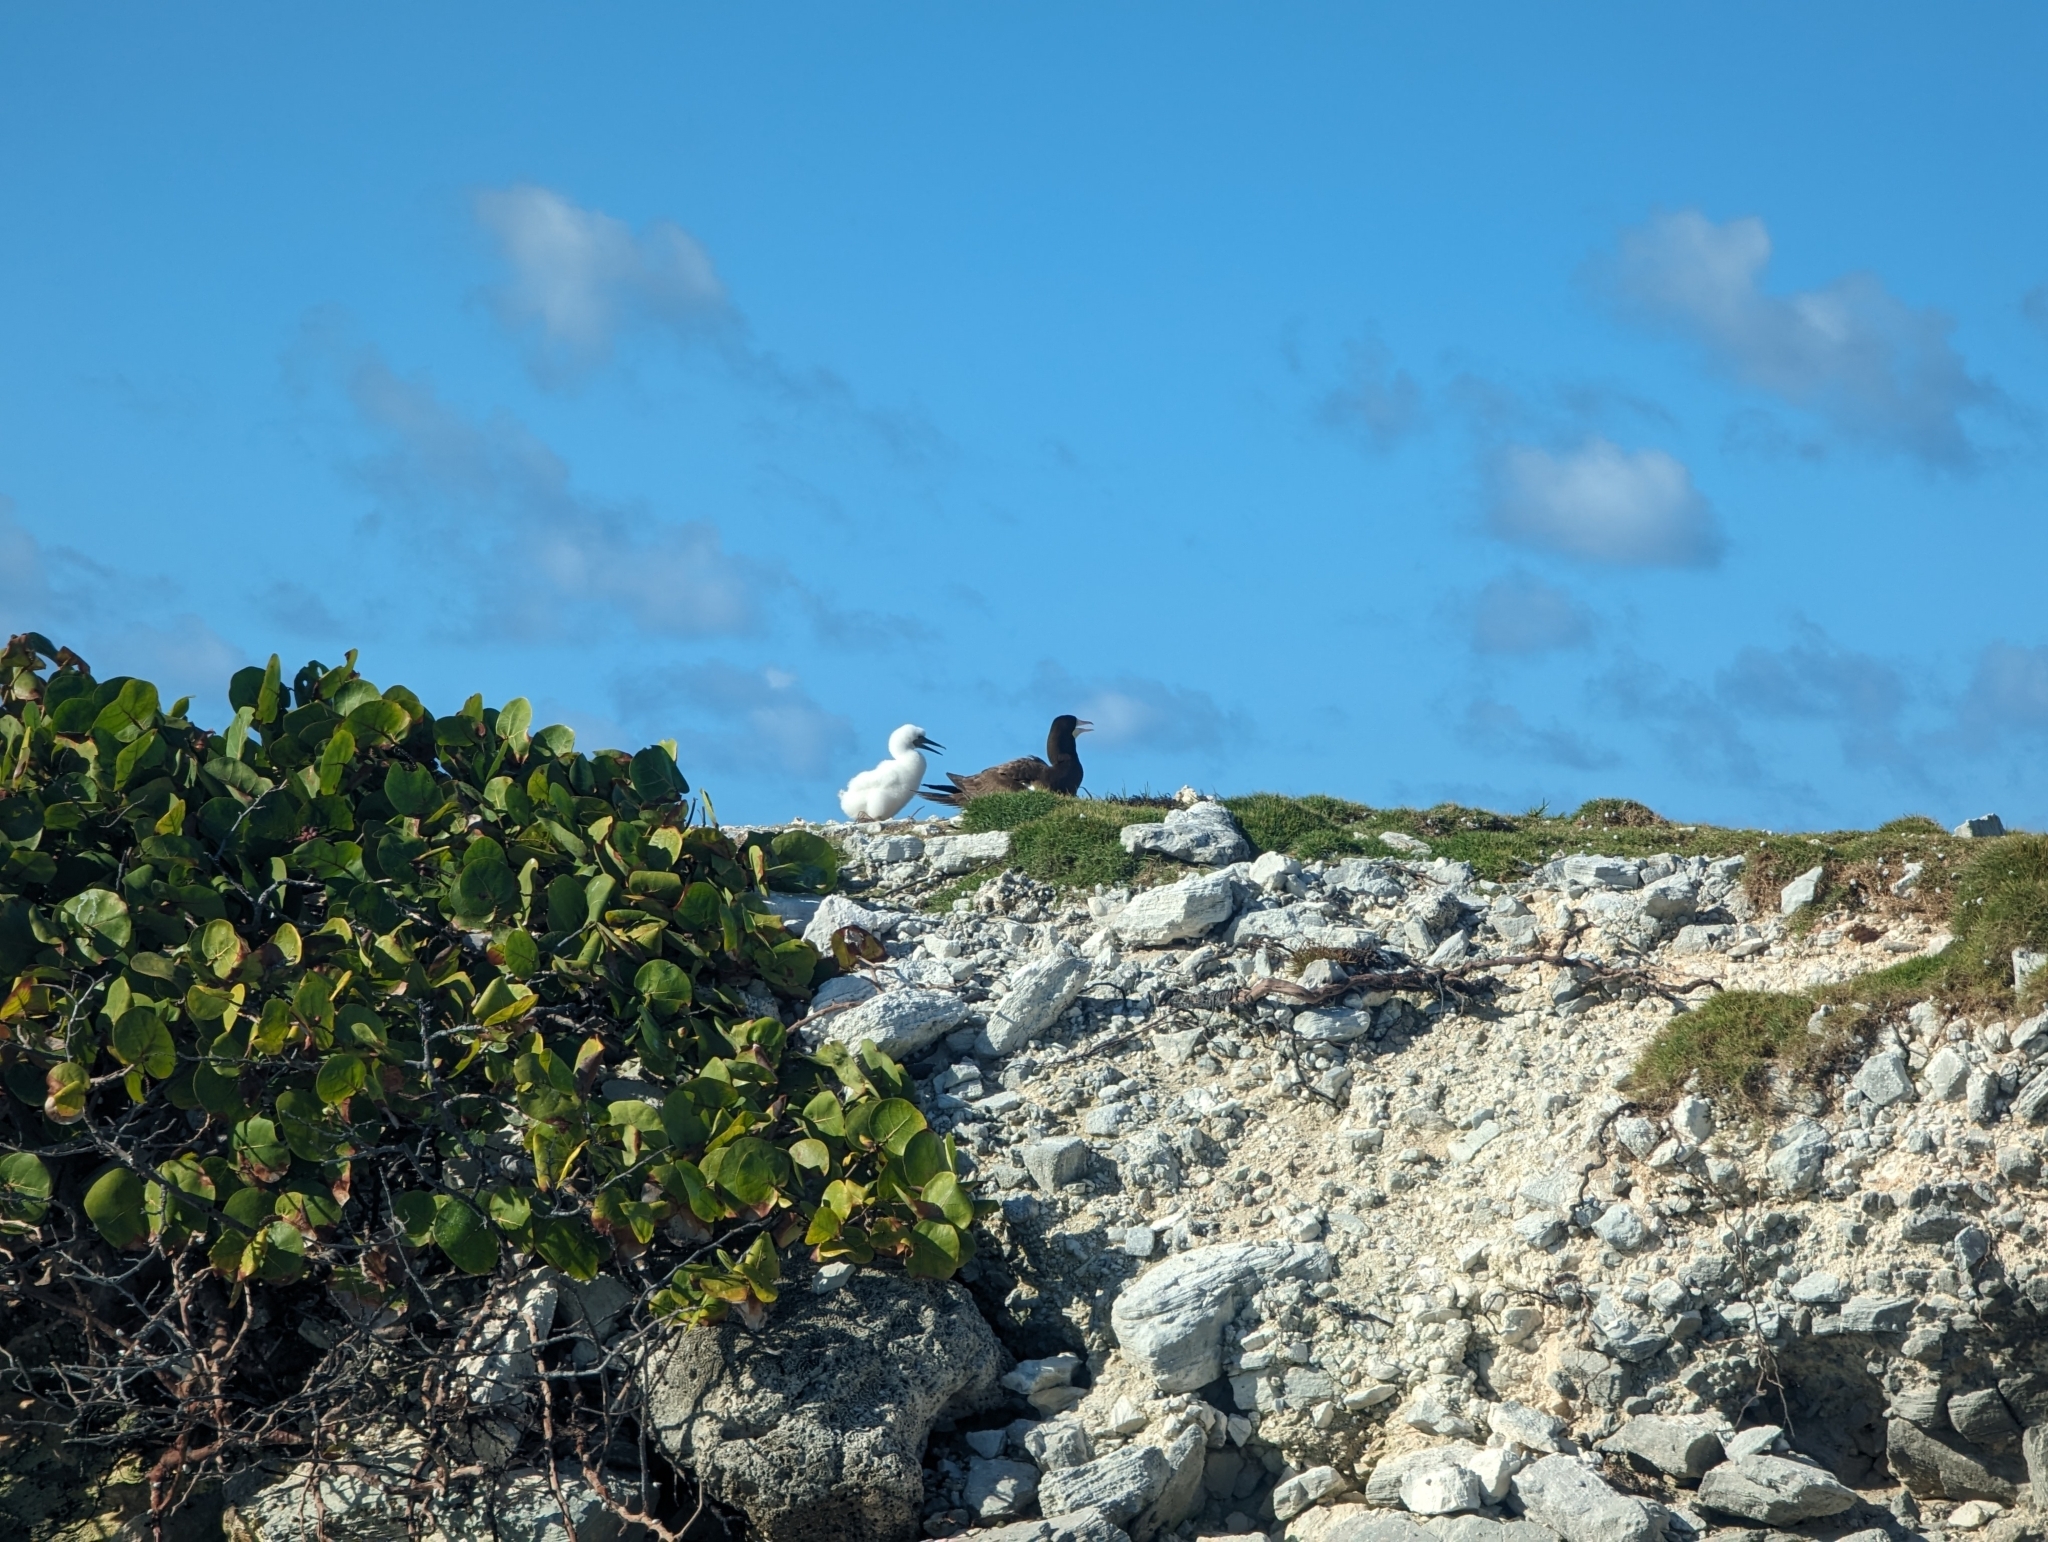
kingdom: Animalia
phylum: Chordata
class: Aves
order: Suliformes
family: Sulidae
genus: Sula
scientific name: Sula leucogaster
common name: Brown booby
